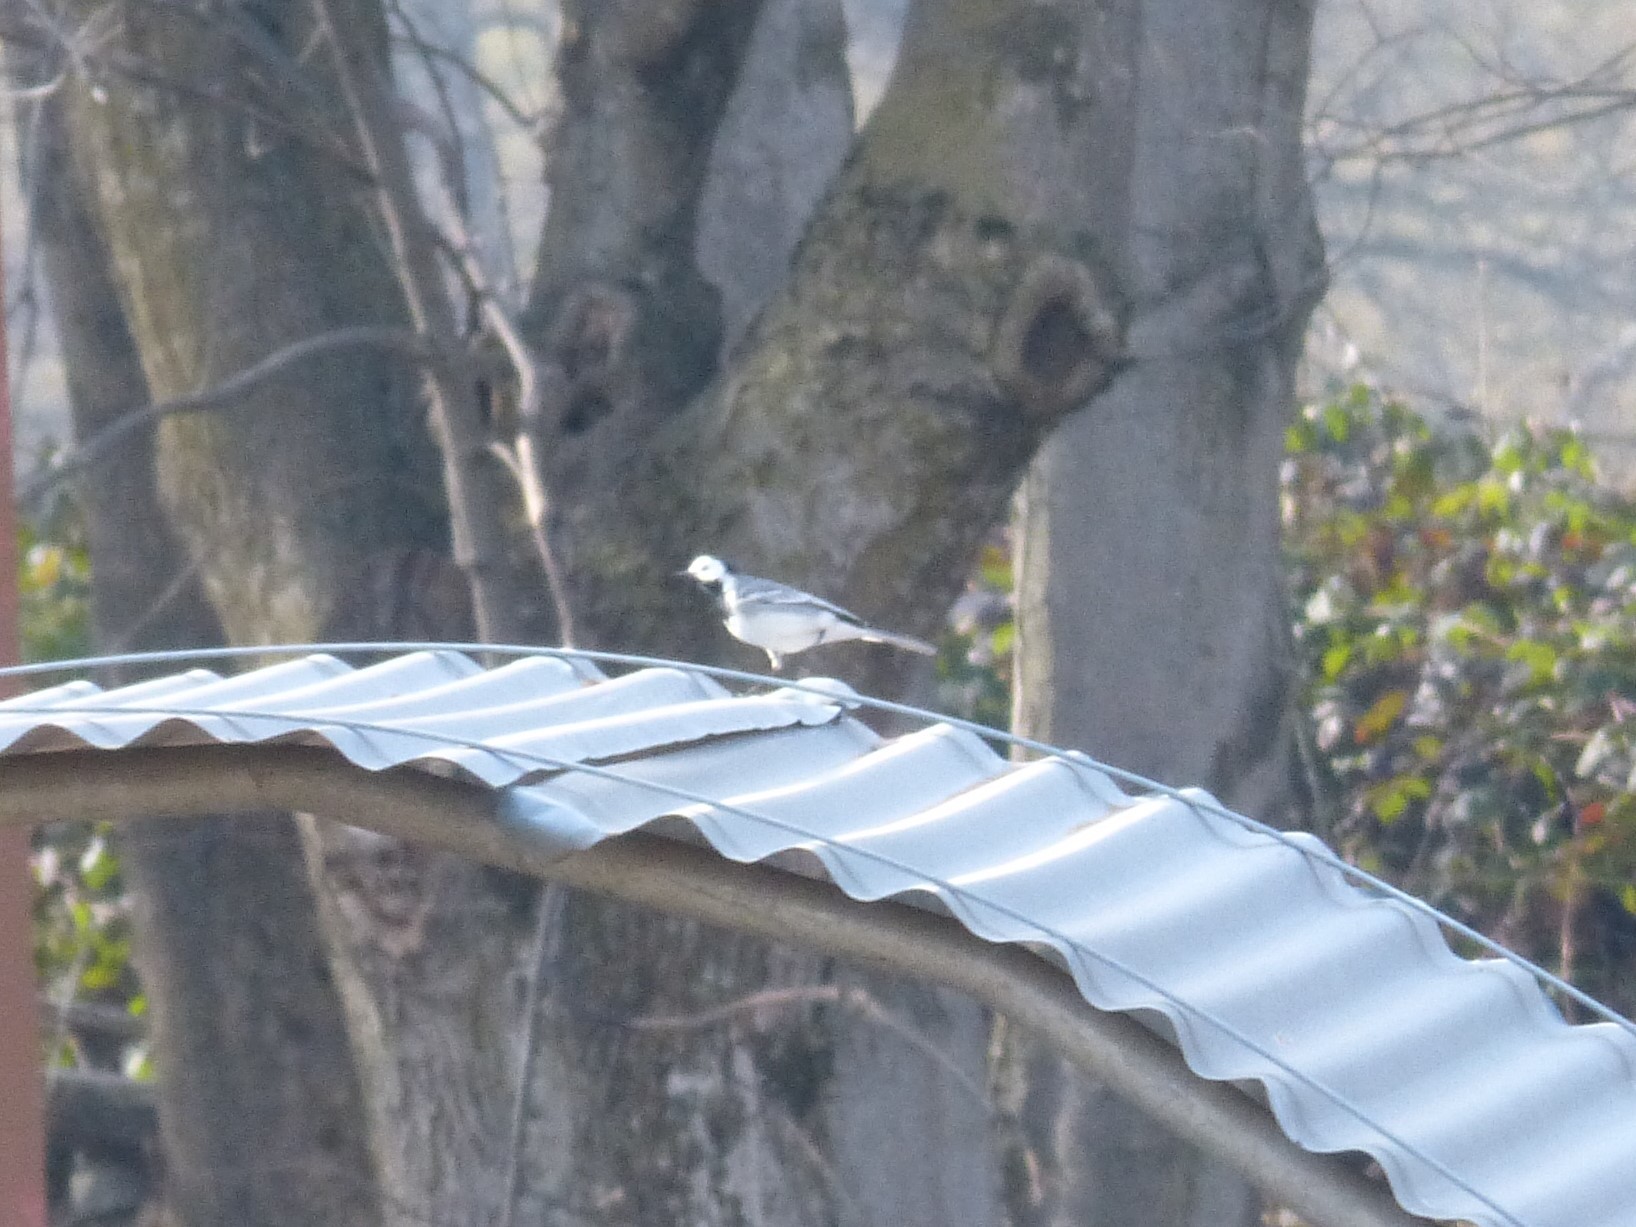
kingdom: Animalia
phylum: Chordata
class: Aves
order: Passeriformes
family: Motacillidae
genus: Motacilla
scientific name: Motacilla alba
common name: White wagtail
